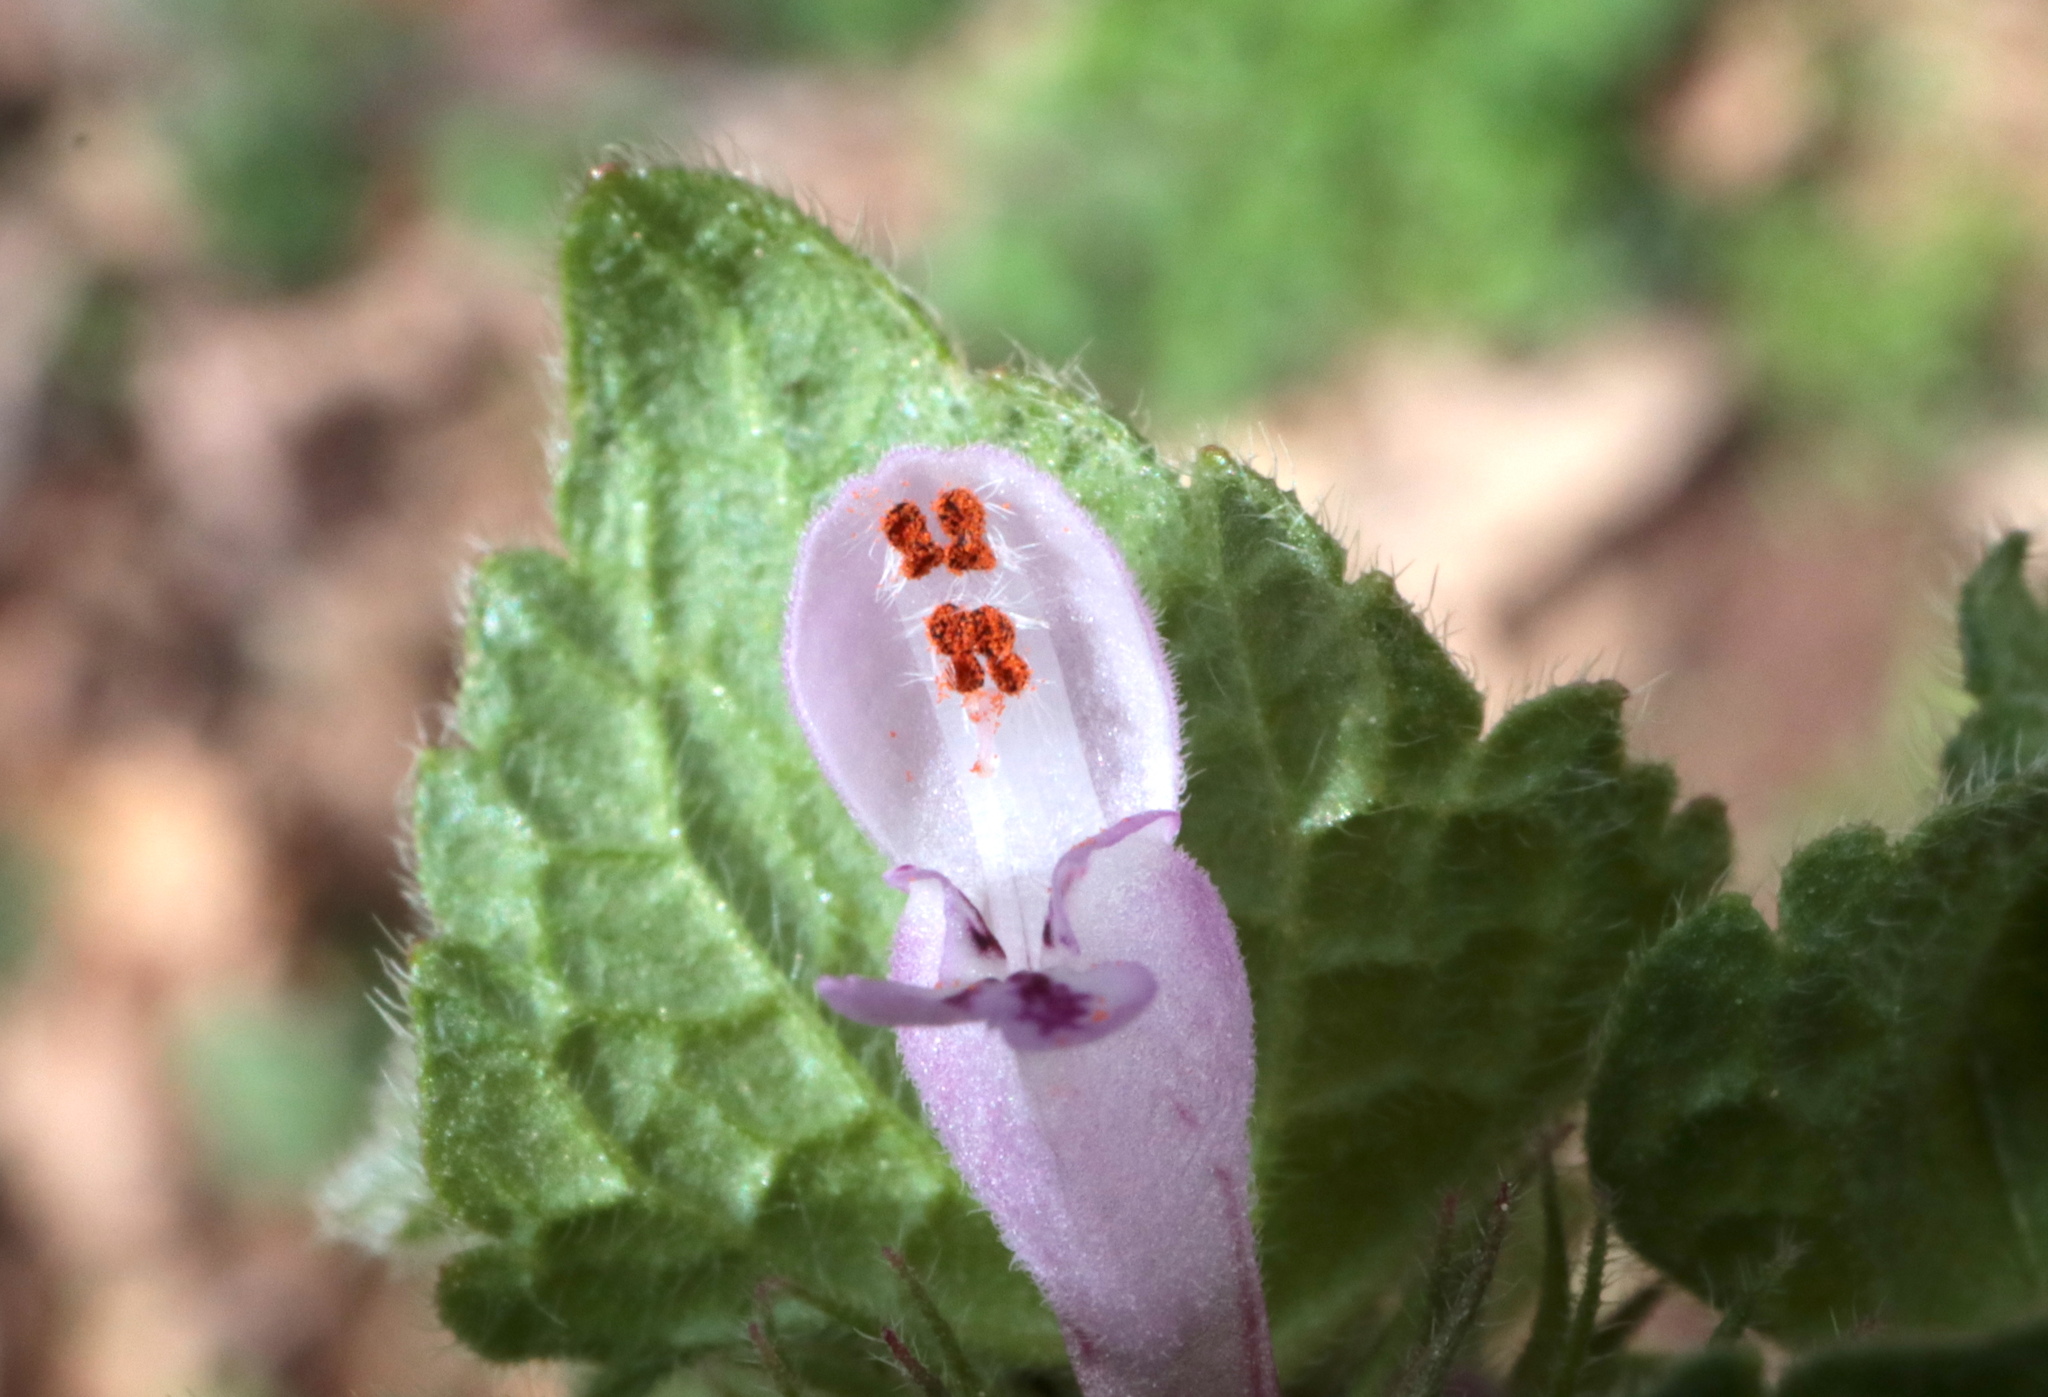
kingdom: Plantae
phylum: Tracheophyta
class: Magnoliopsida
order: Lamiales
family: Lamiaceae
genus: Lamium
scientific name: Lamium purpureum
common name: Red dead-nettle
